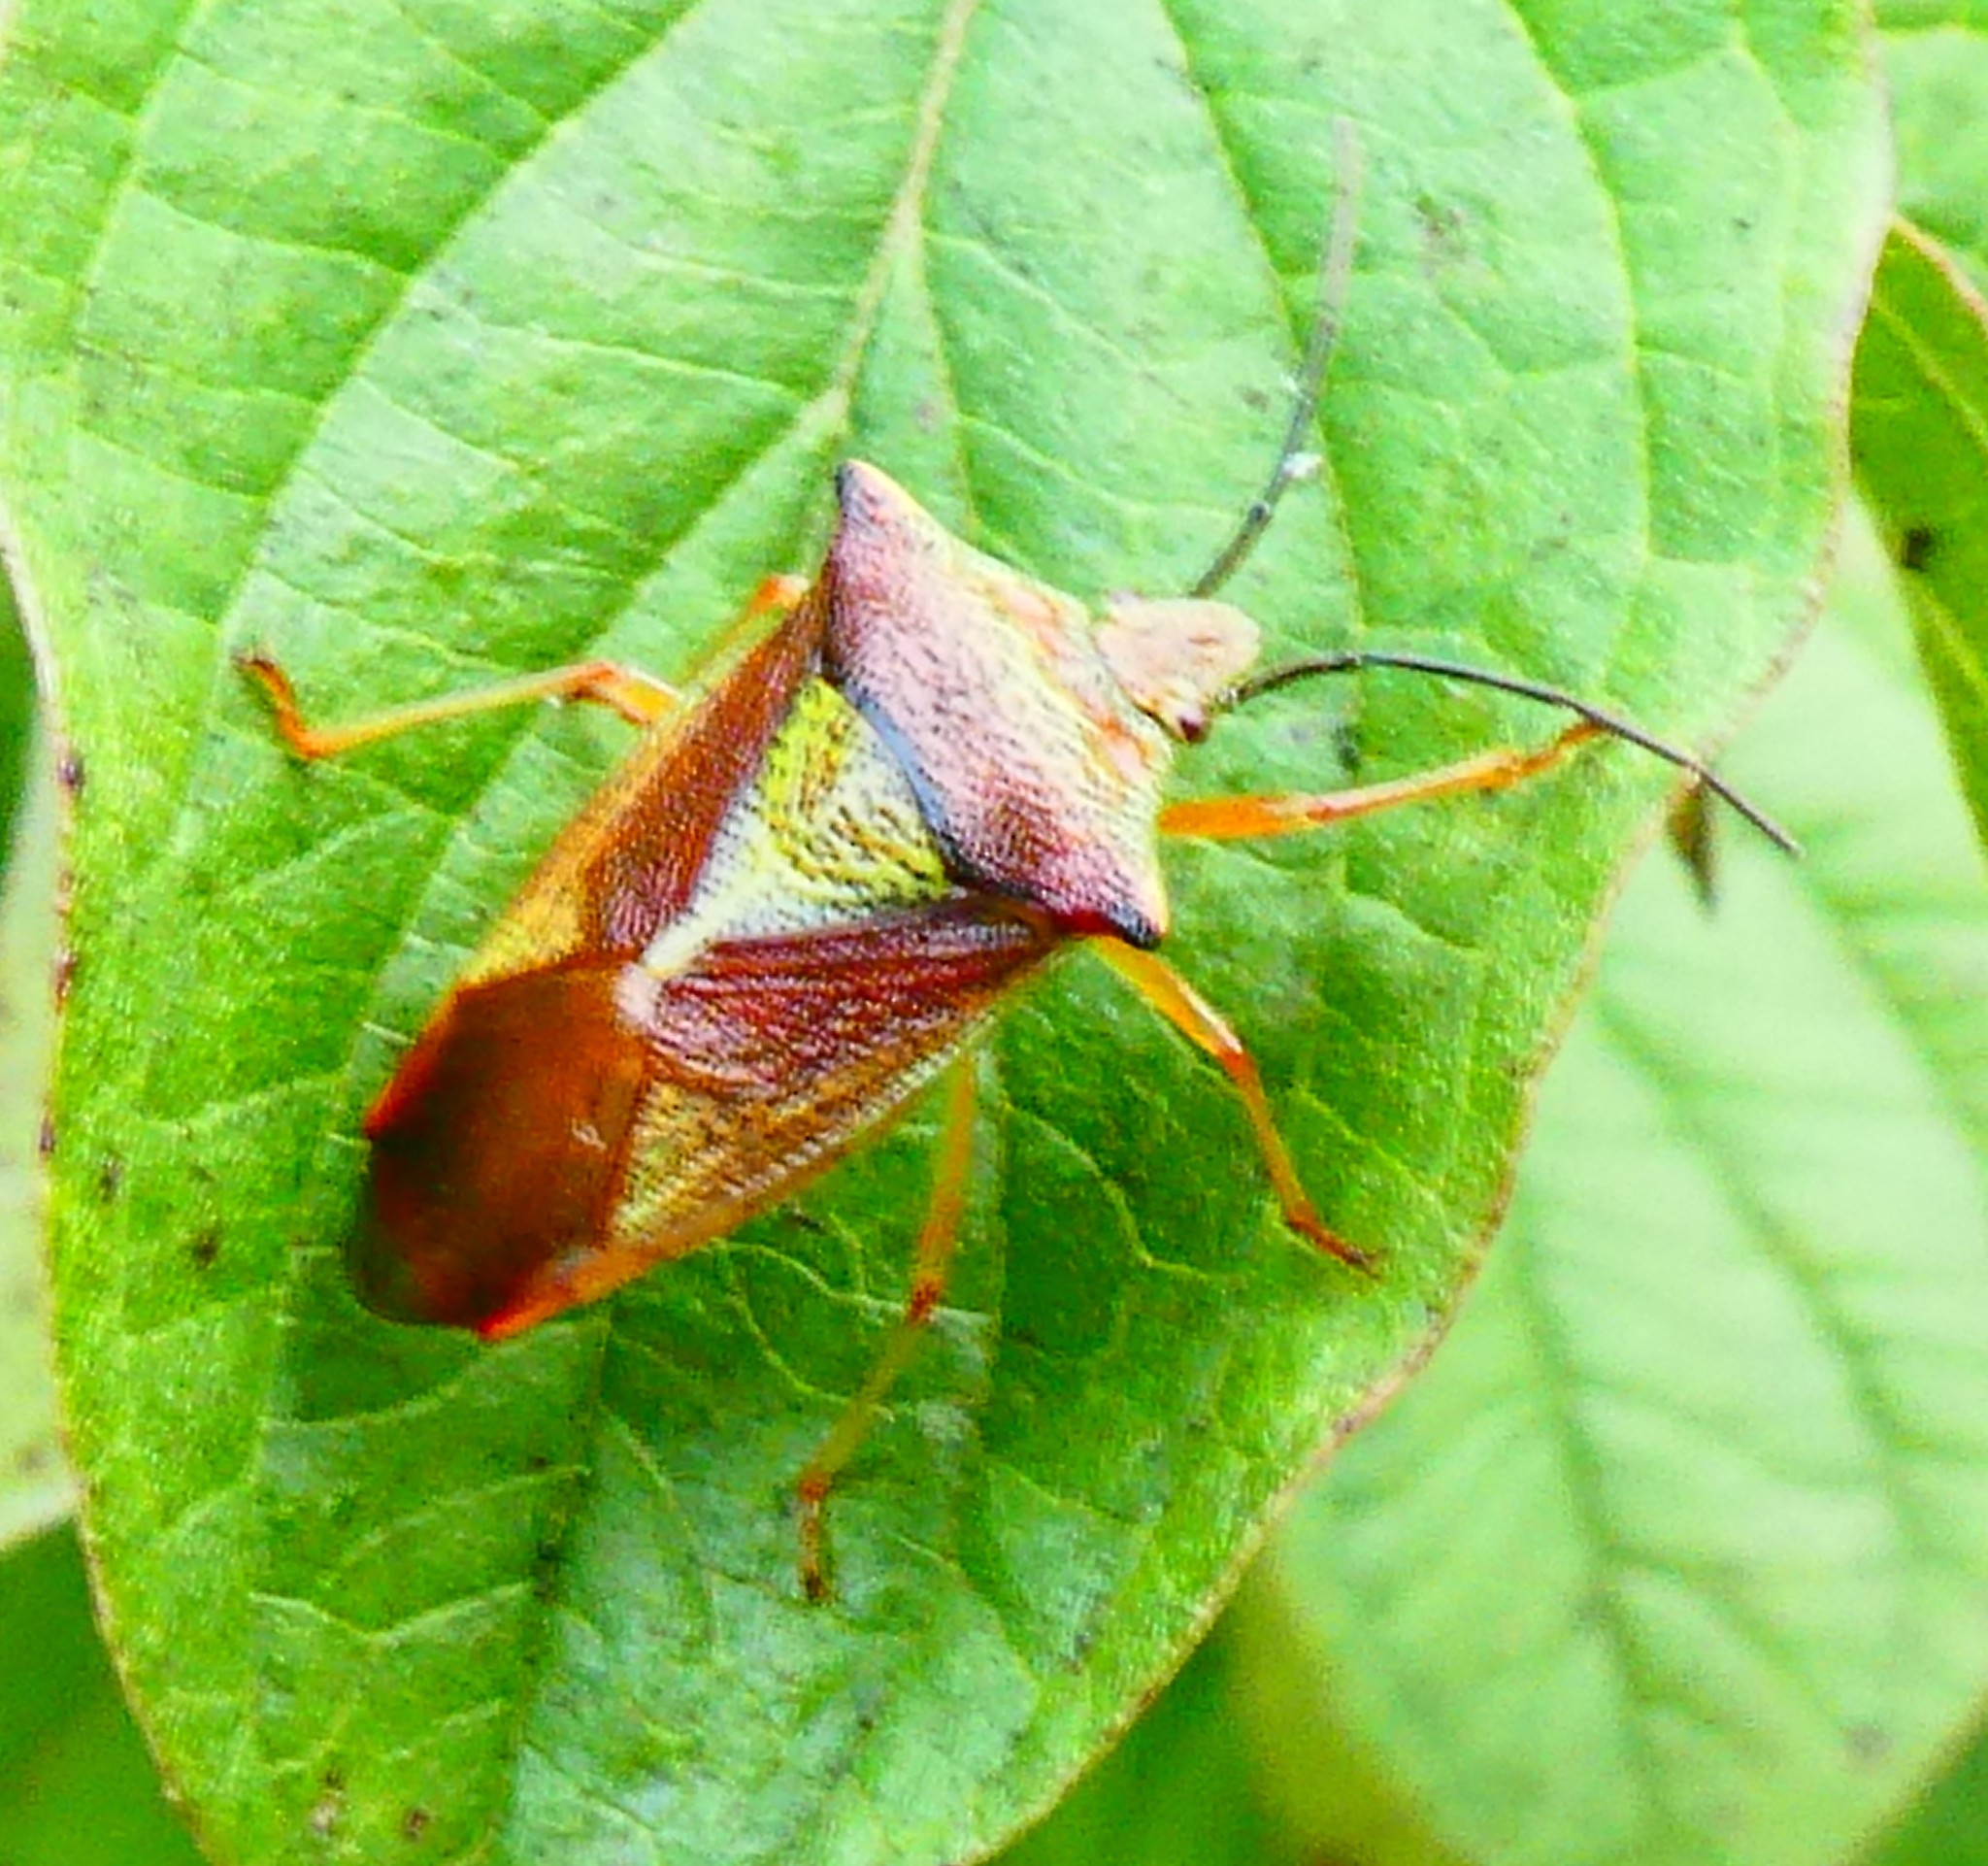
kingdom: Animalia
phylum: Arthropoda
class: Insecta
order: Hemiptera
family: Acanthosomatidae
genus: Acanthosoma
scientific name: Acanthosoma haemorrhoidale
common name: Hawthorn shieldbug
